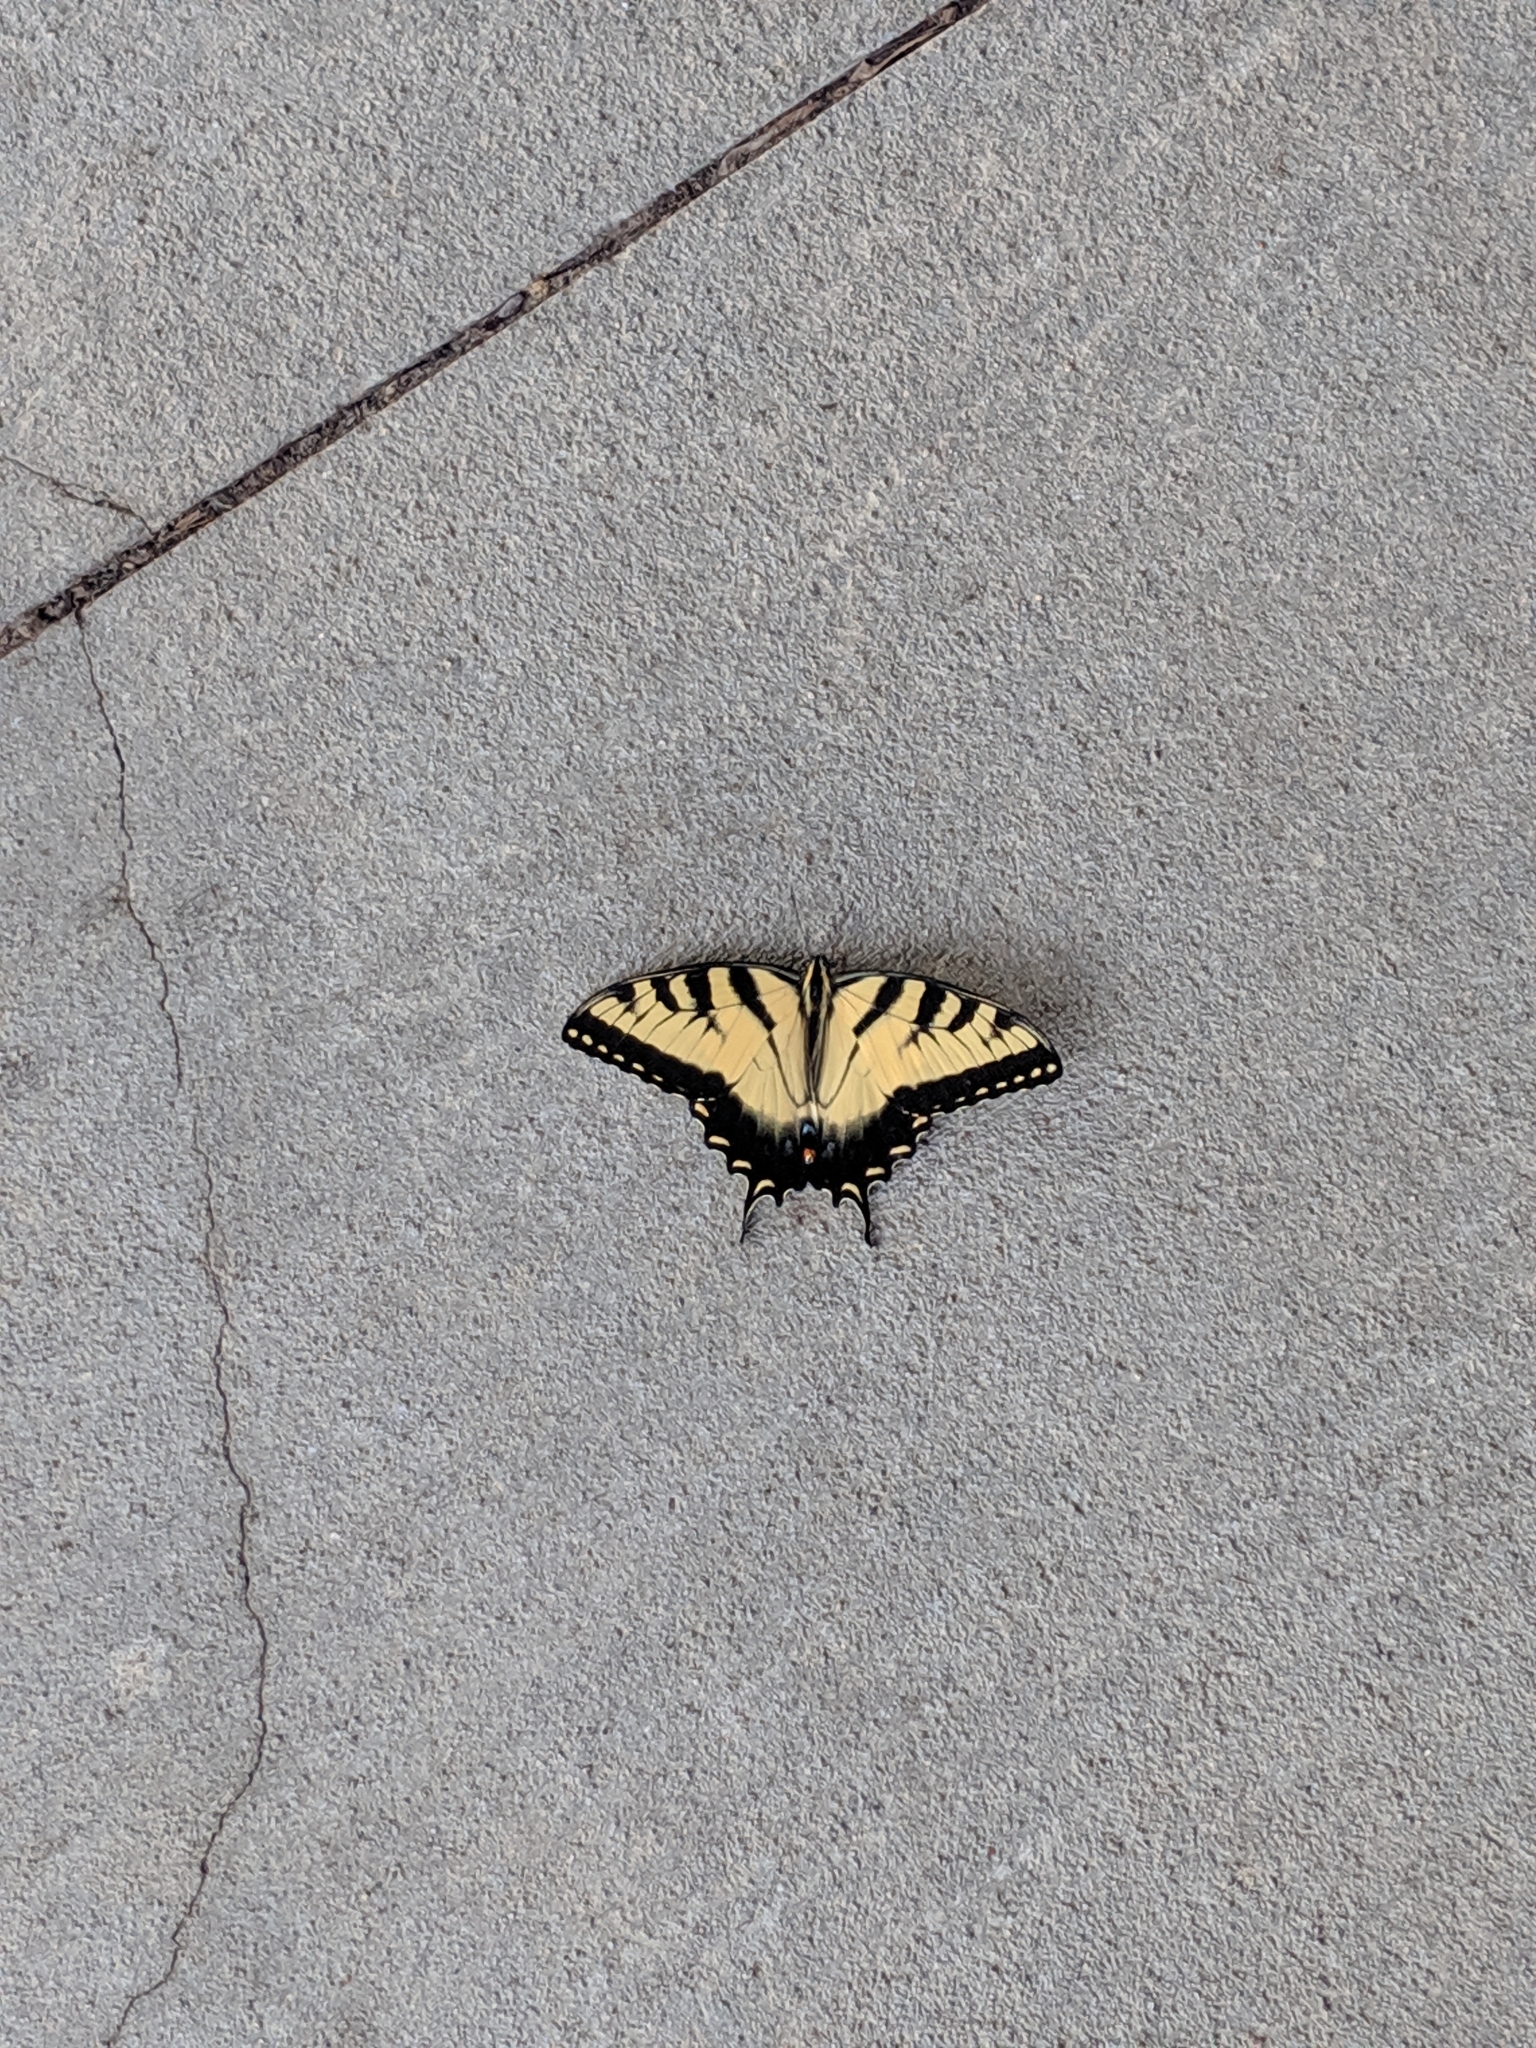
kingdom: Animalia
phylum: Arthropoda
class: Insecta
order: Lepidoptera
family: Papilionidae
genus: Papilio
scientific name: Papilio glaucus
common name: Tiger swallowtail
